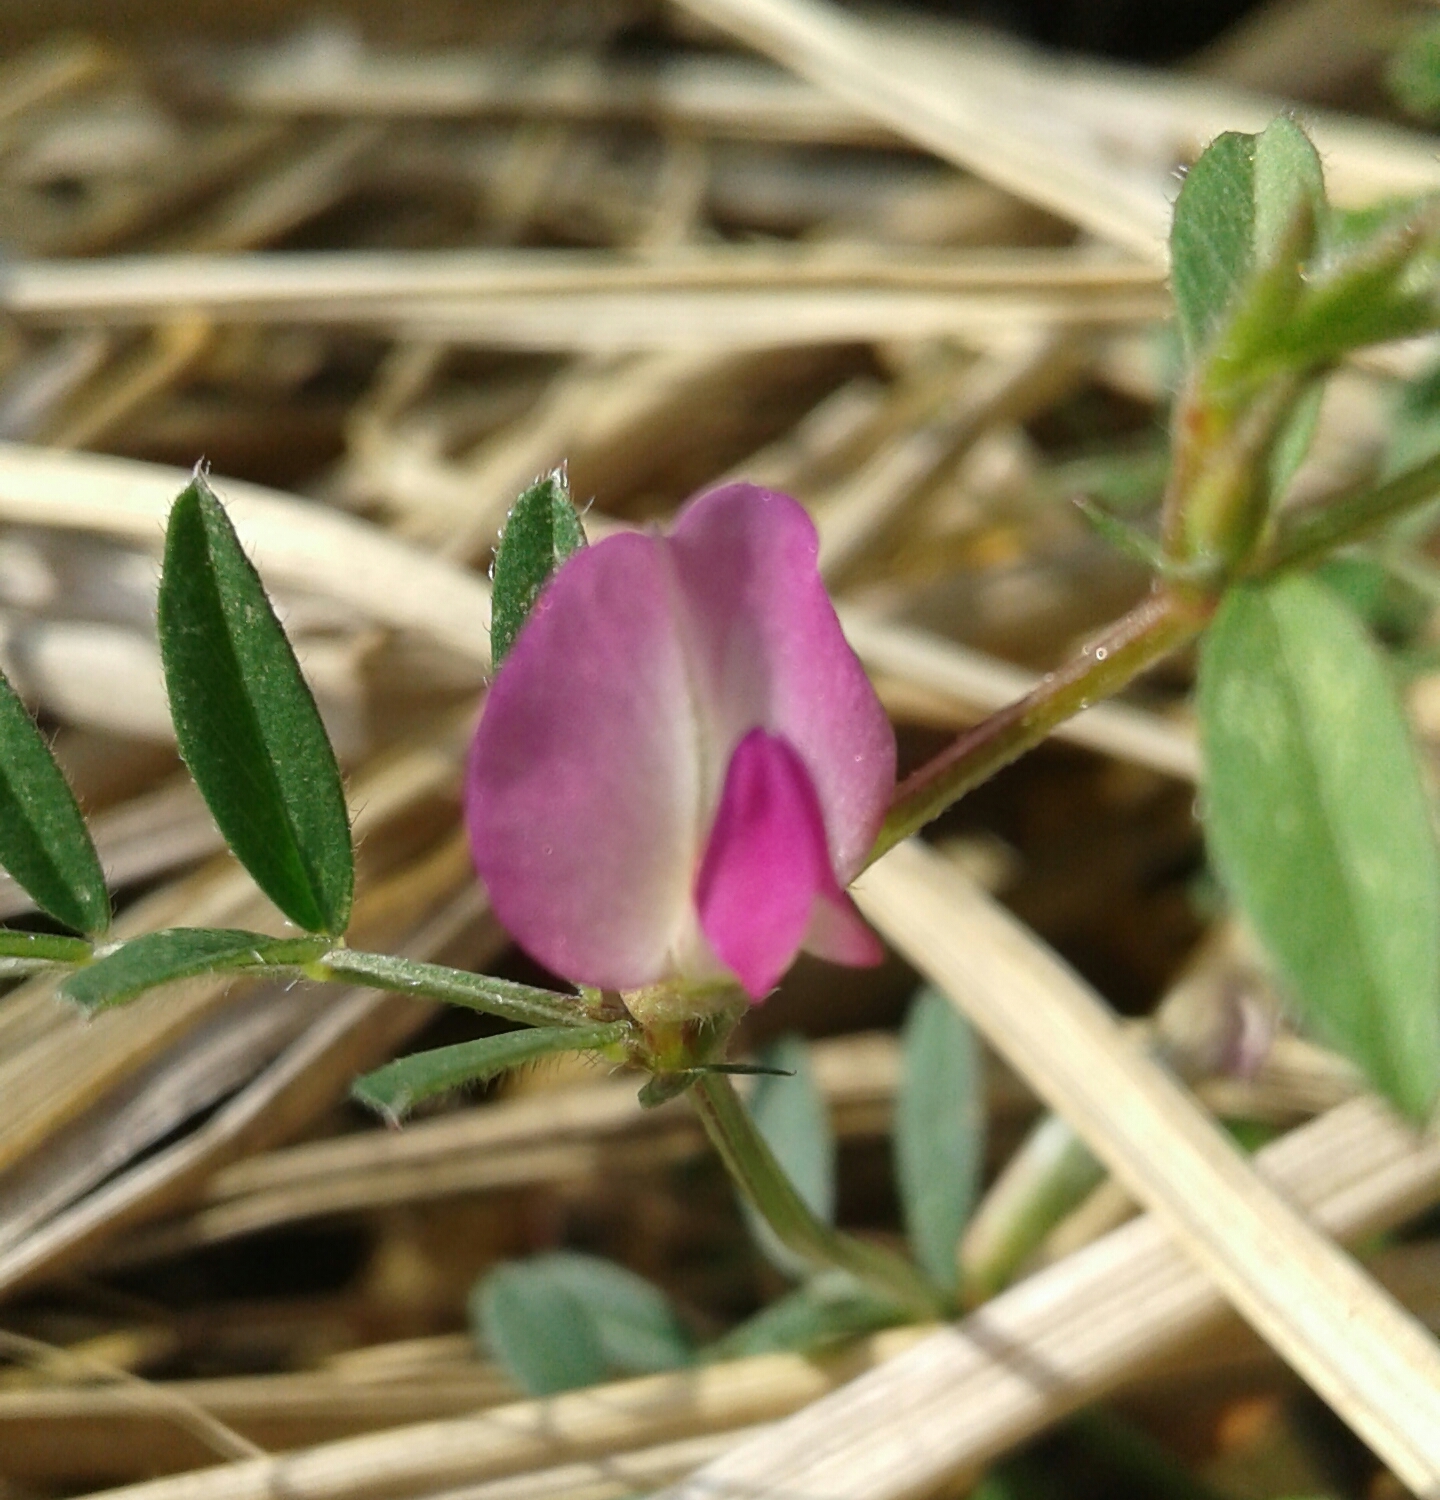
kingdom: Plantae
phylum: Tracheophyta
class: Magnoliopsida
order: Fabales
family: Fabaceae
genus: Vicia
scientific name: Vicia sativa
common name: Garden vetch
